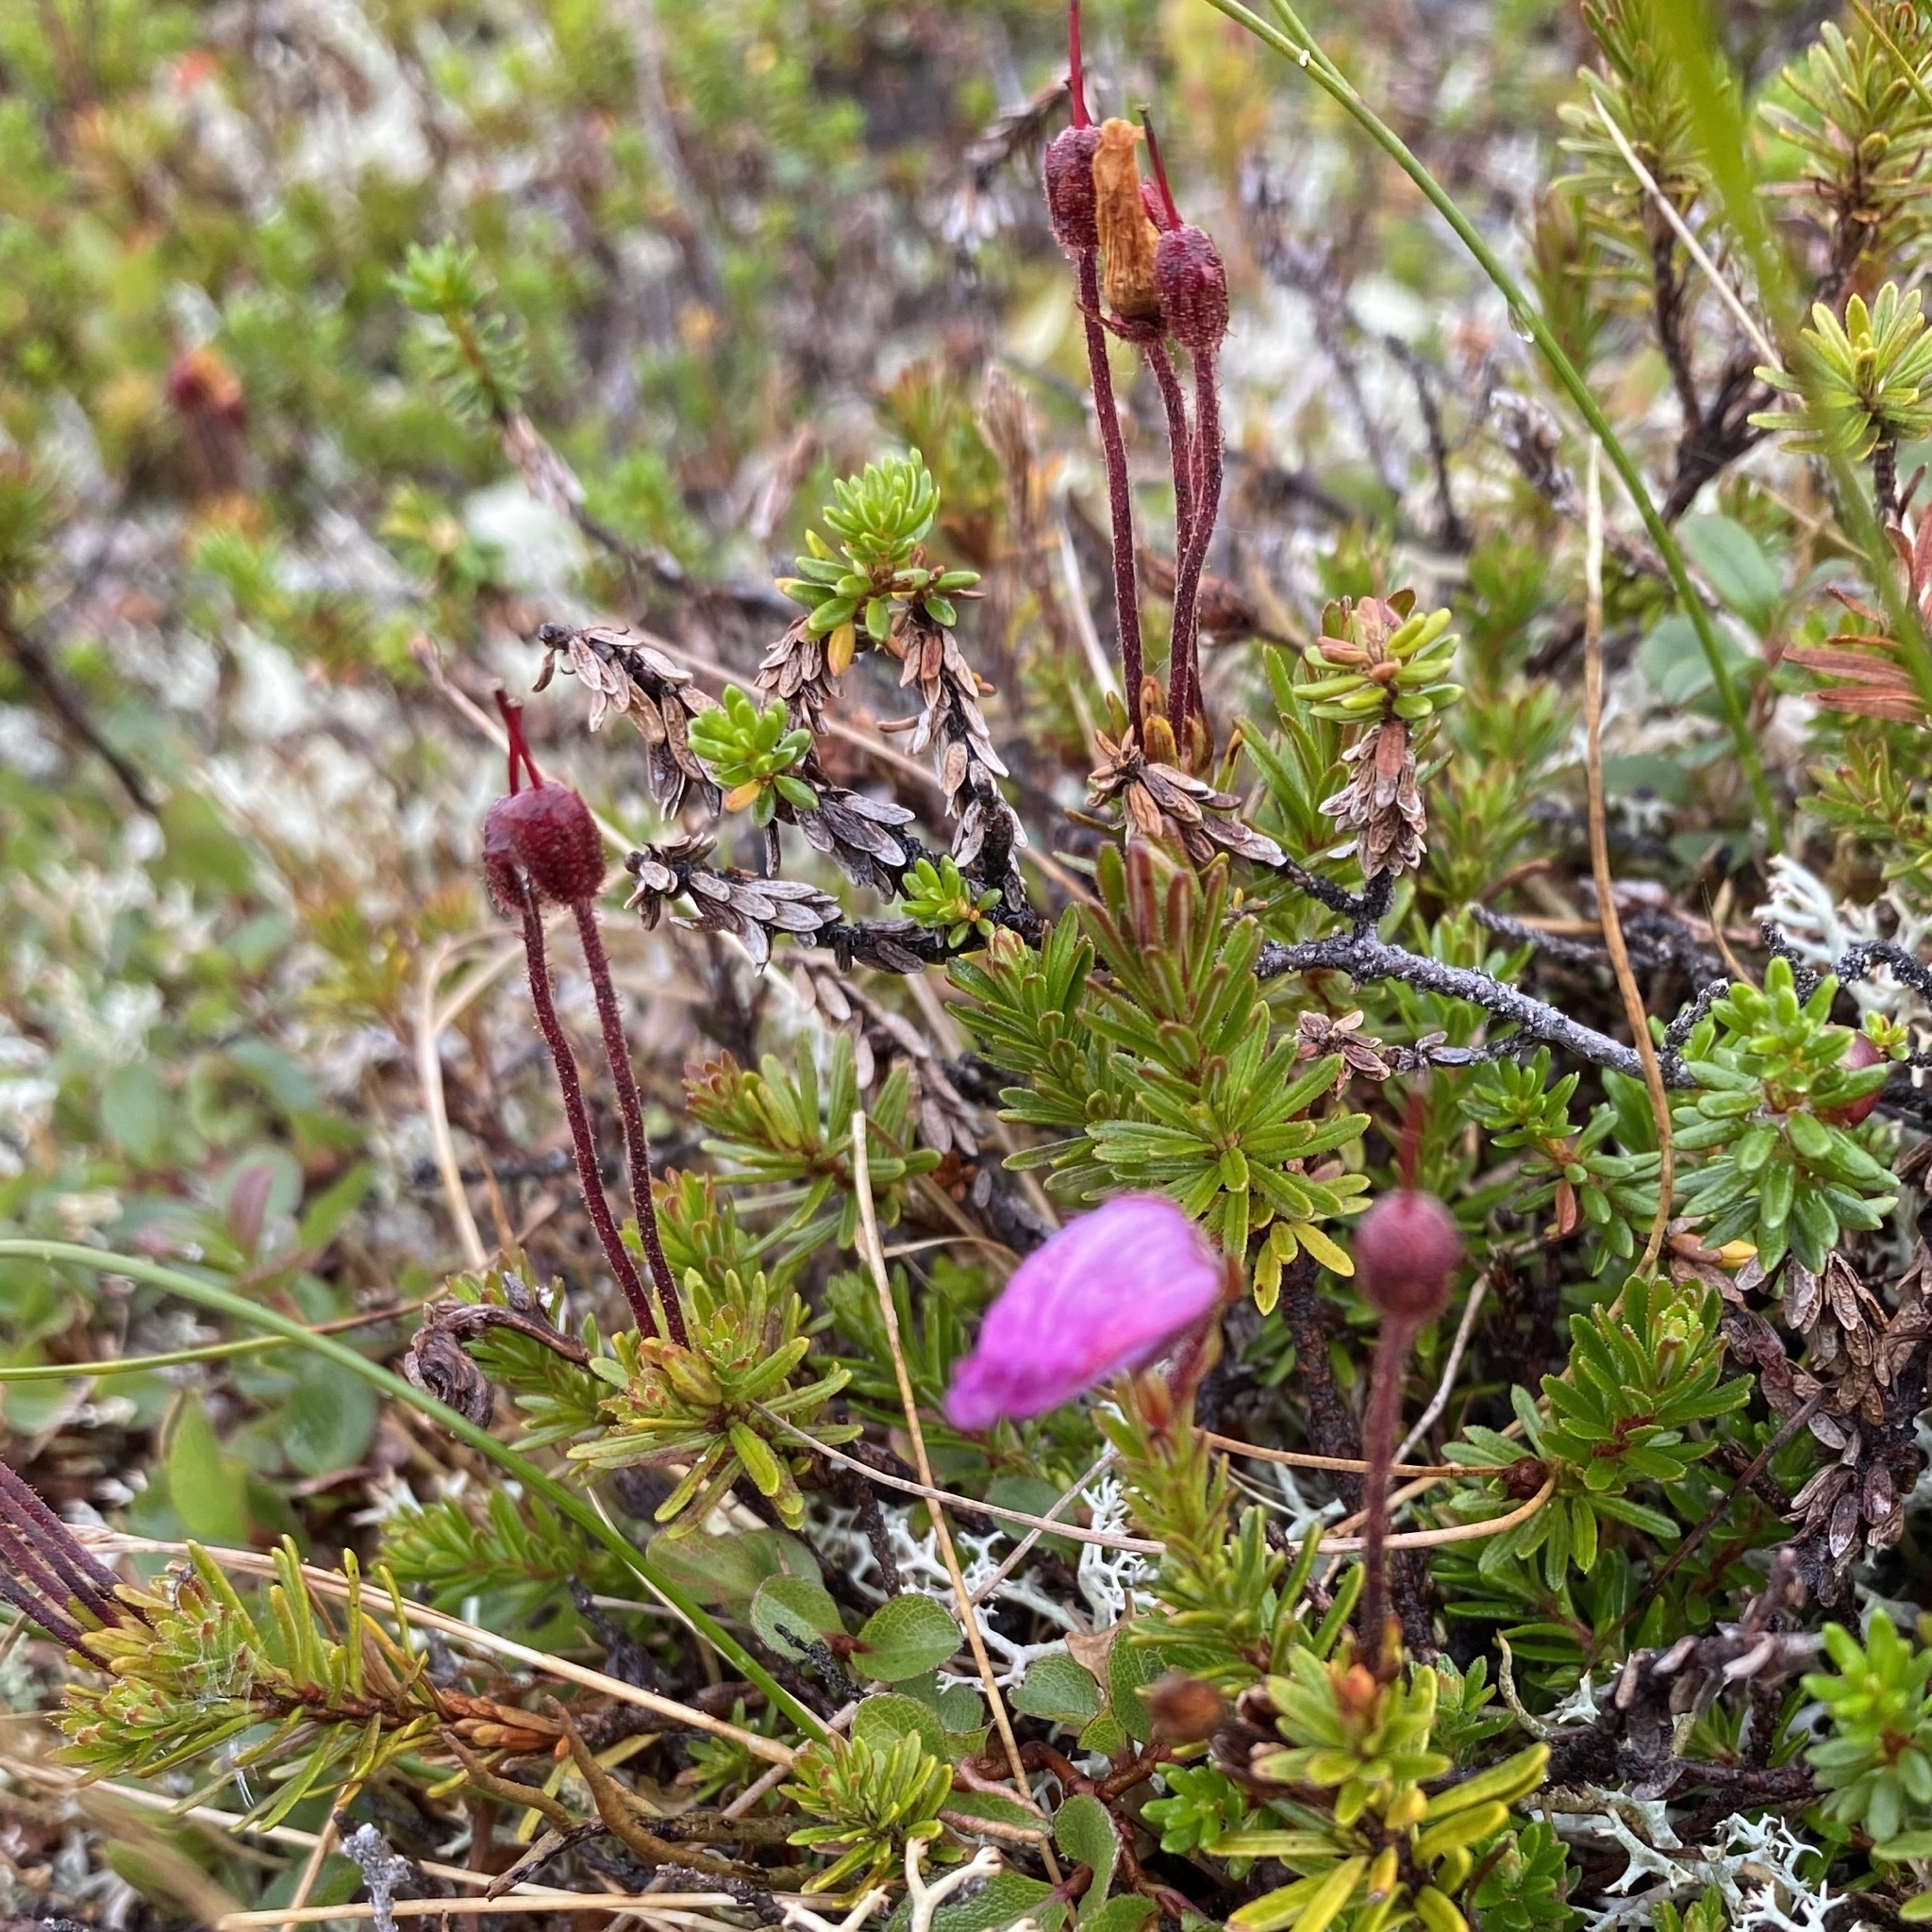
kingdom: Plantae
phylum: Tracheophyta
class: Magnoliopsida
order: Ericales
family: Ericaceae
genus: Phyllodoce
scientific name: Phyllodoce caerulea
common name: Blue heath
